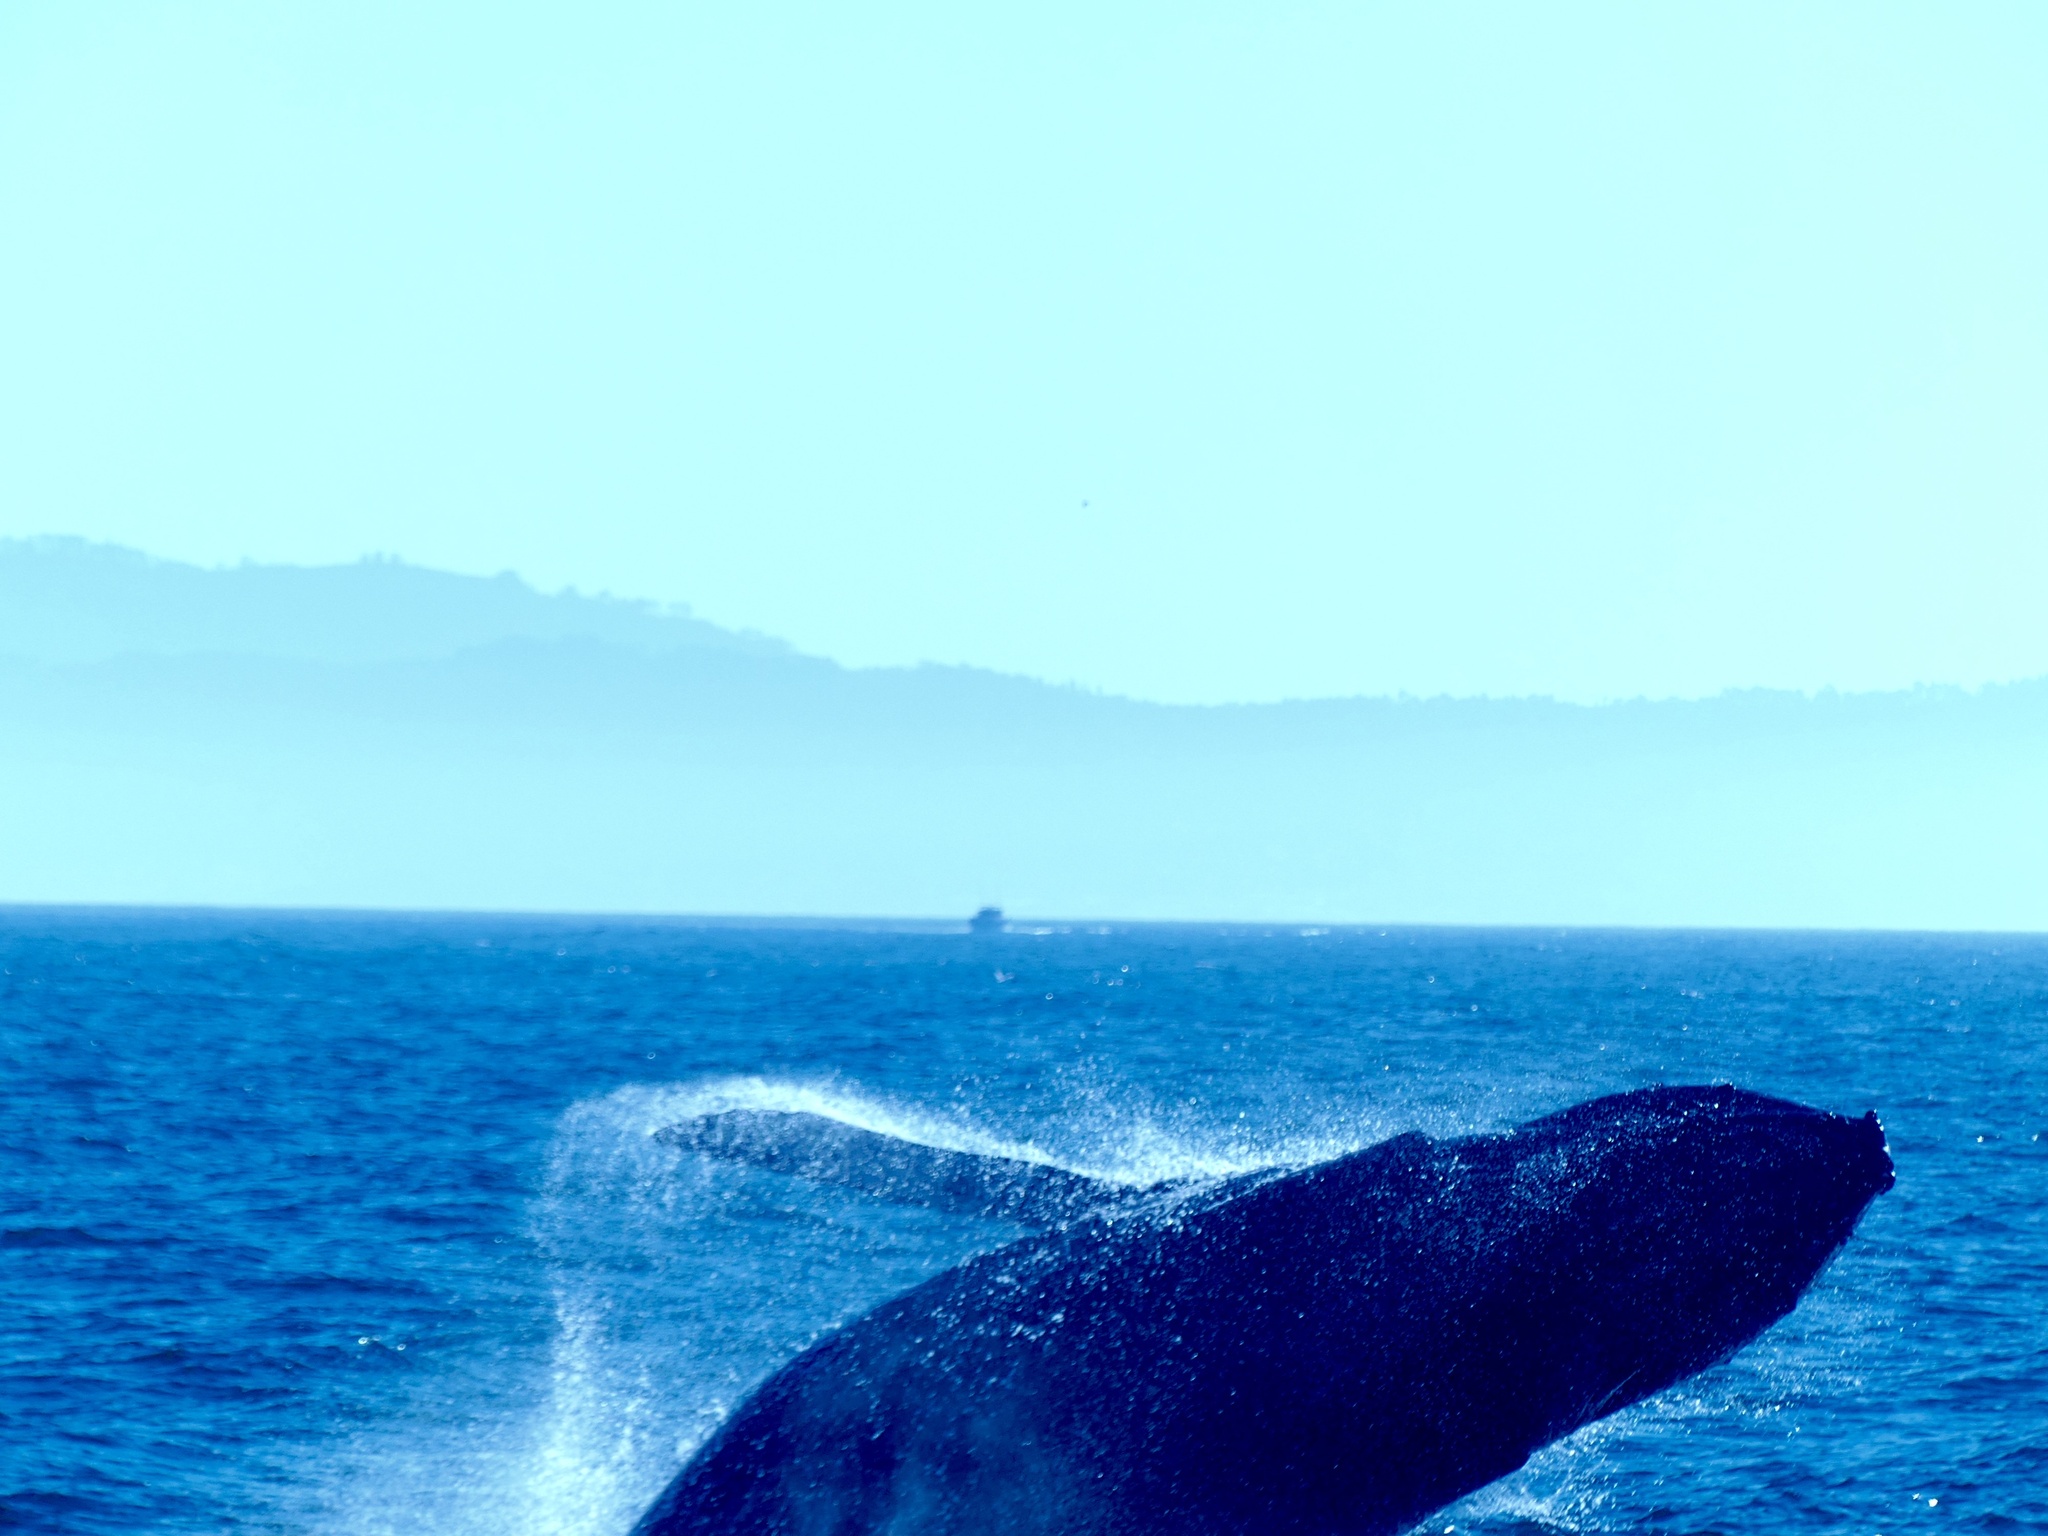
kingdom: Animalia
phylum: Chordata
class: Mammalia
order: Cetacea
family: Balaenopteridae
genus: Megaptera
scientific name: Megaptera novaeangliae
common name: Humpback whale
